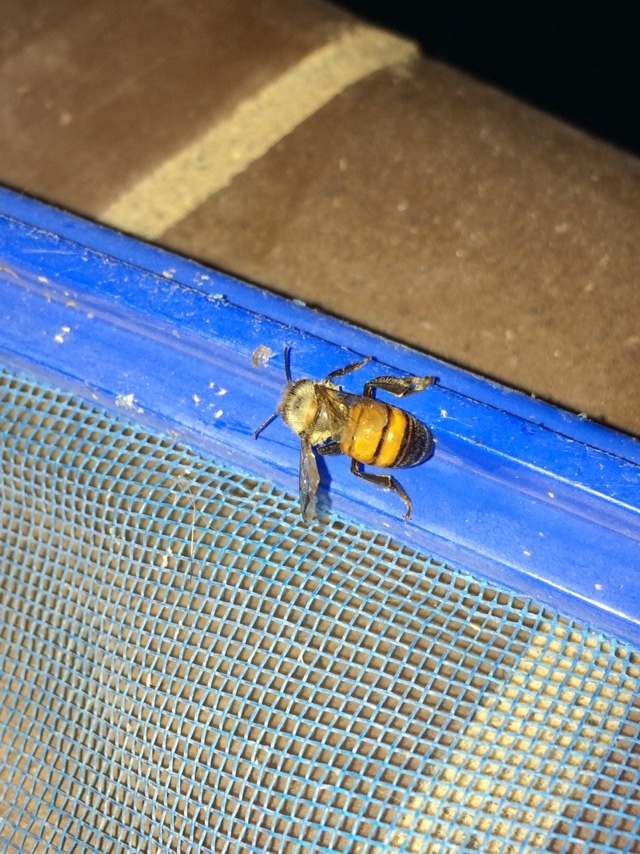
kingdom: Animalia
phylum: Arthropoda
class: Insecta
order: Hymenoptera
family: Apidae
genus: Apis
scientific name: Apis mellifera
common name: Honey bee
